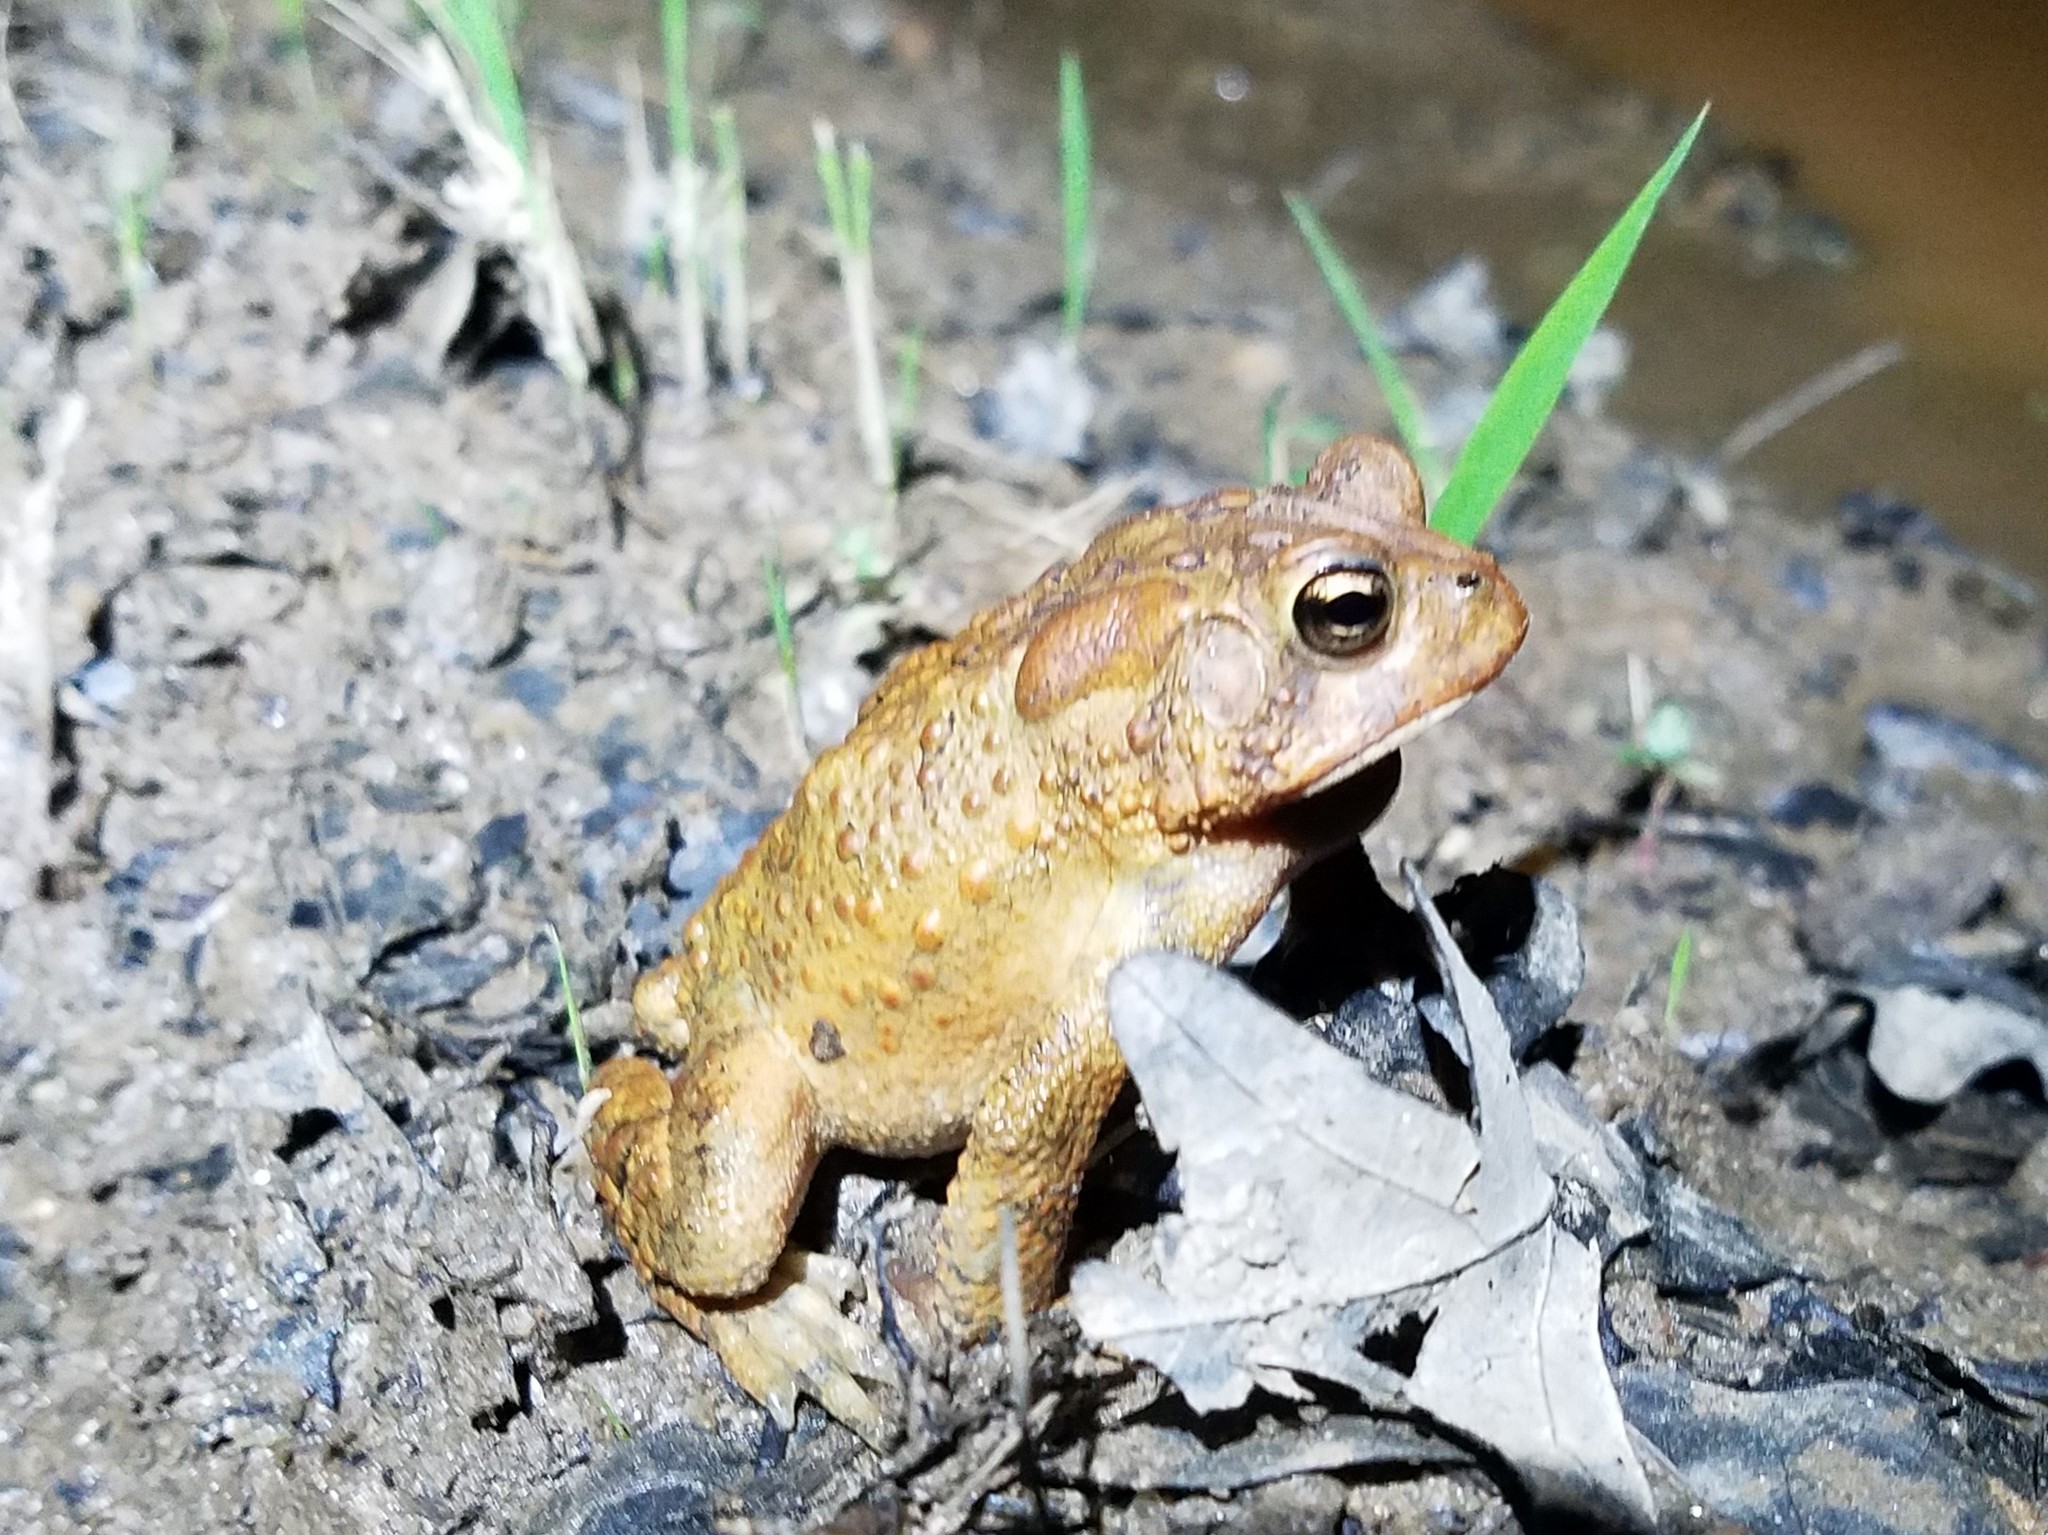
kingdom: Animalia
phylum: Chordata
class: Amphibia
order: Anura
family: Bufonidae
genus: Anaxyrus
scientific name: Anaxyrus americanus
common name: American toad
